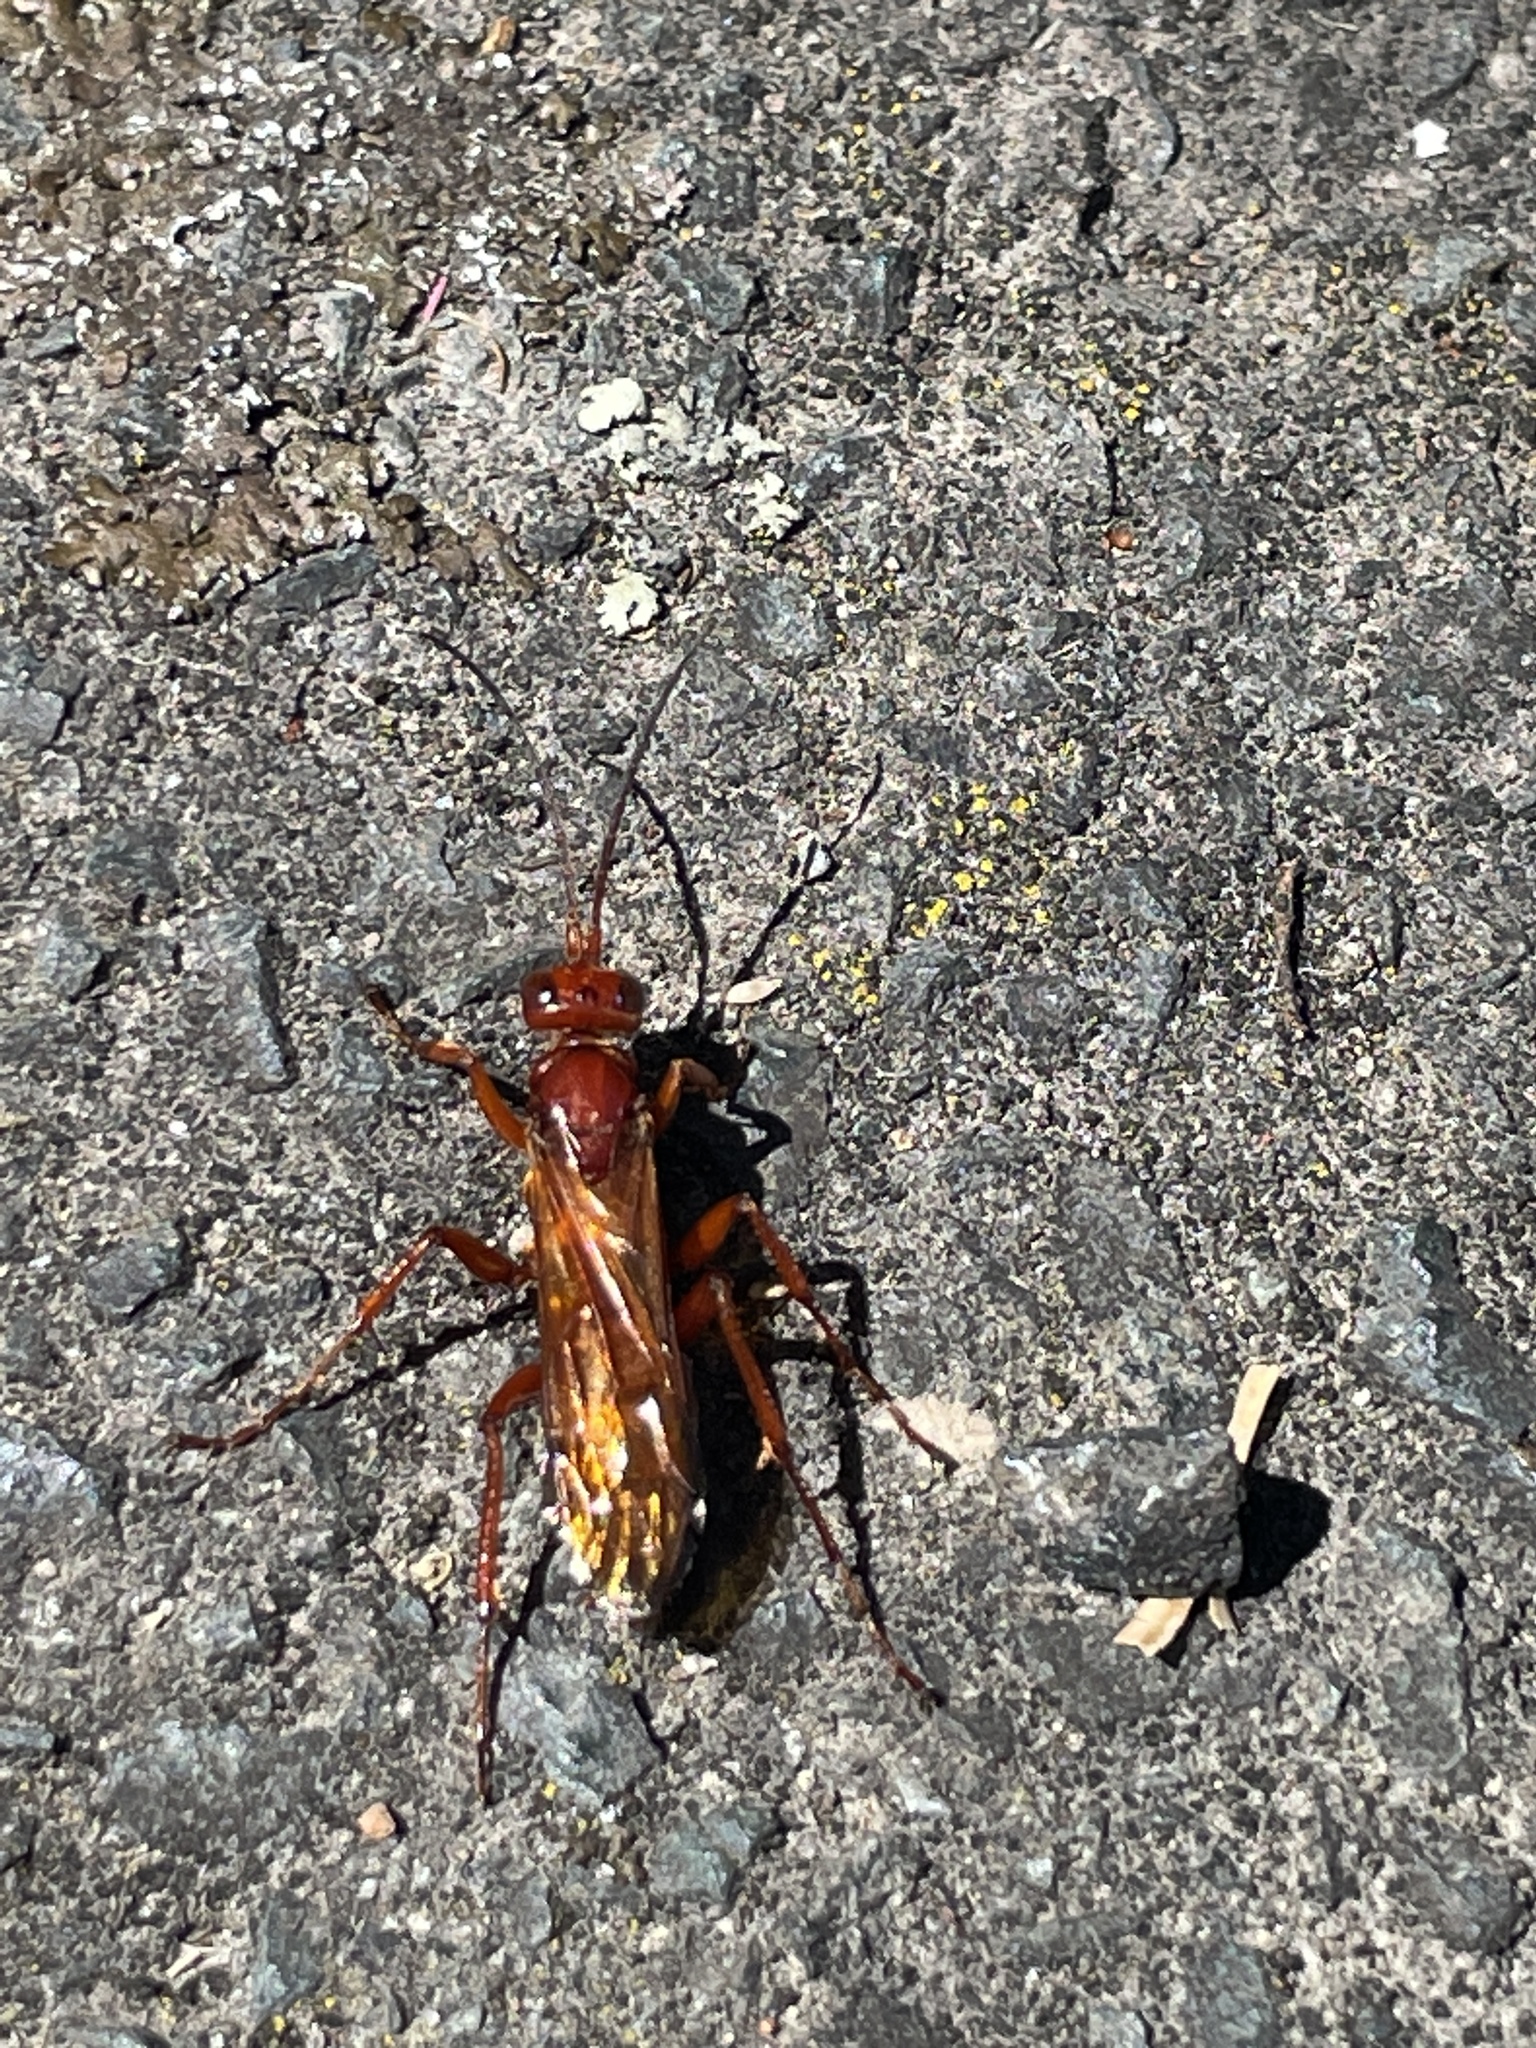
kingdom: Animalia
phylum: Arthropoda
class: Insecta
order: Hymenoptera
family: Pompilidae
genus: Sphictostethus
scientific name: Sphictostethus nitidus
